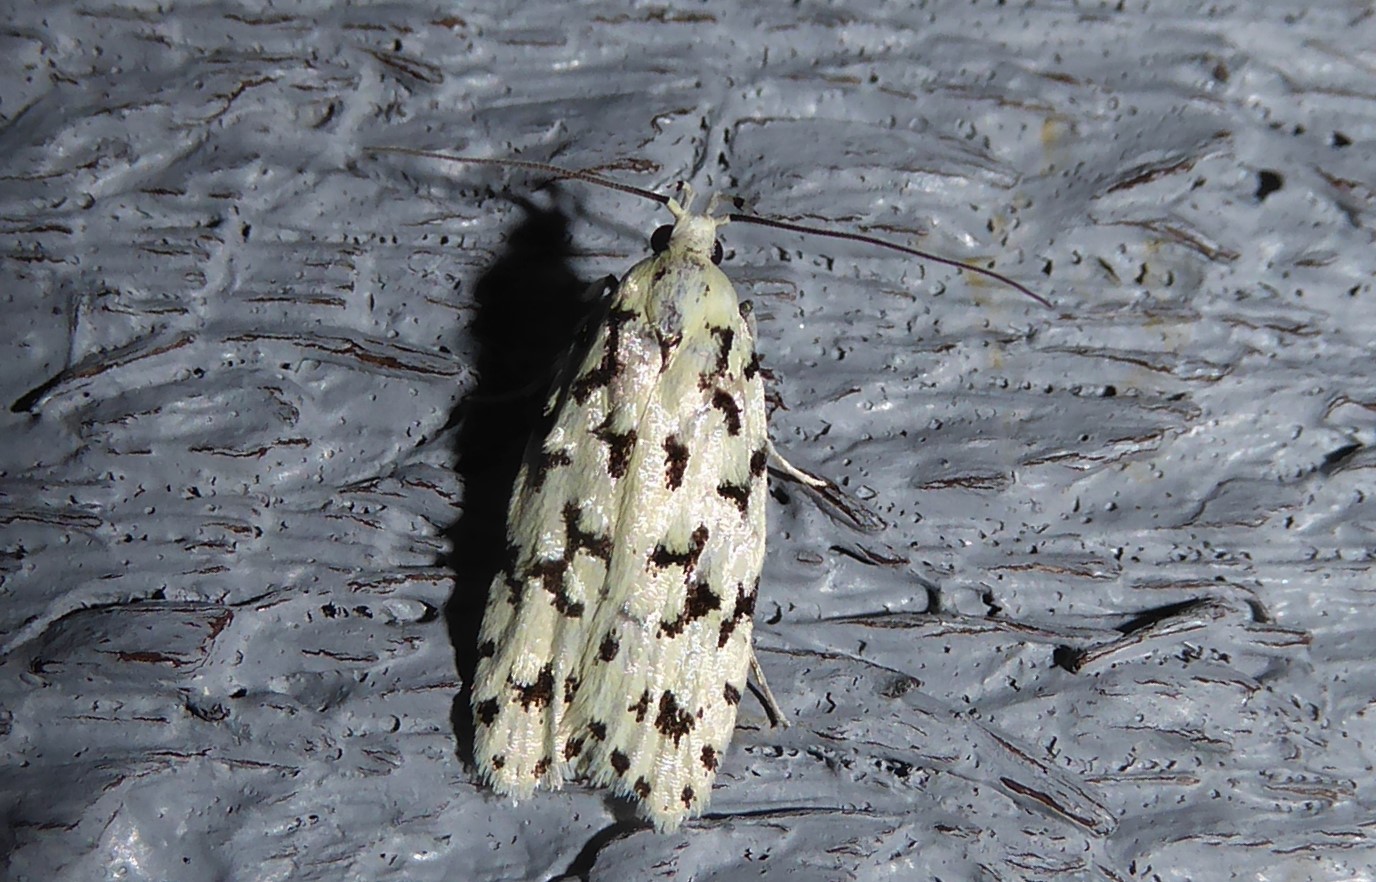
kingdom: Animalia
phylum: Arthropoda
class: Insecta
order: Lepidoptera
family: Oecophoridae
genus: Izatha
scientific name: Izatha huttoni
